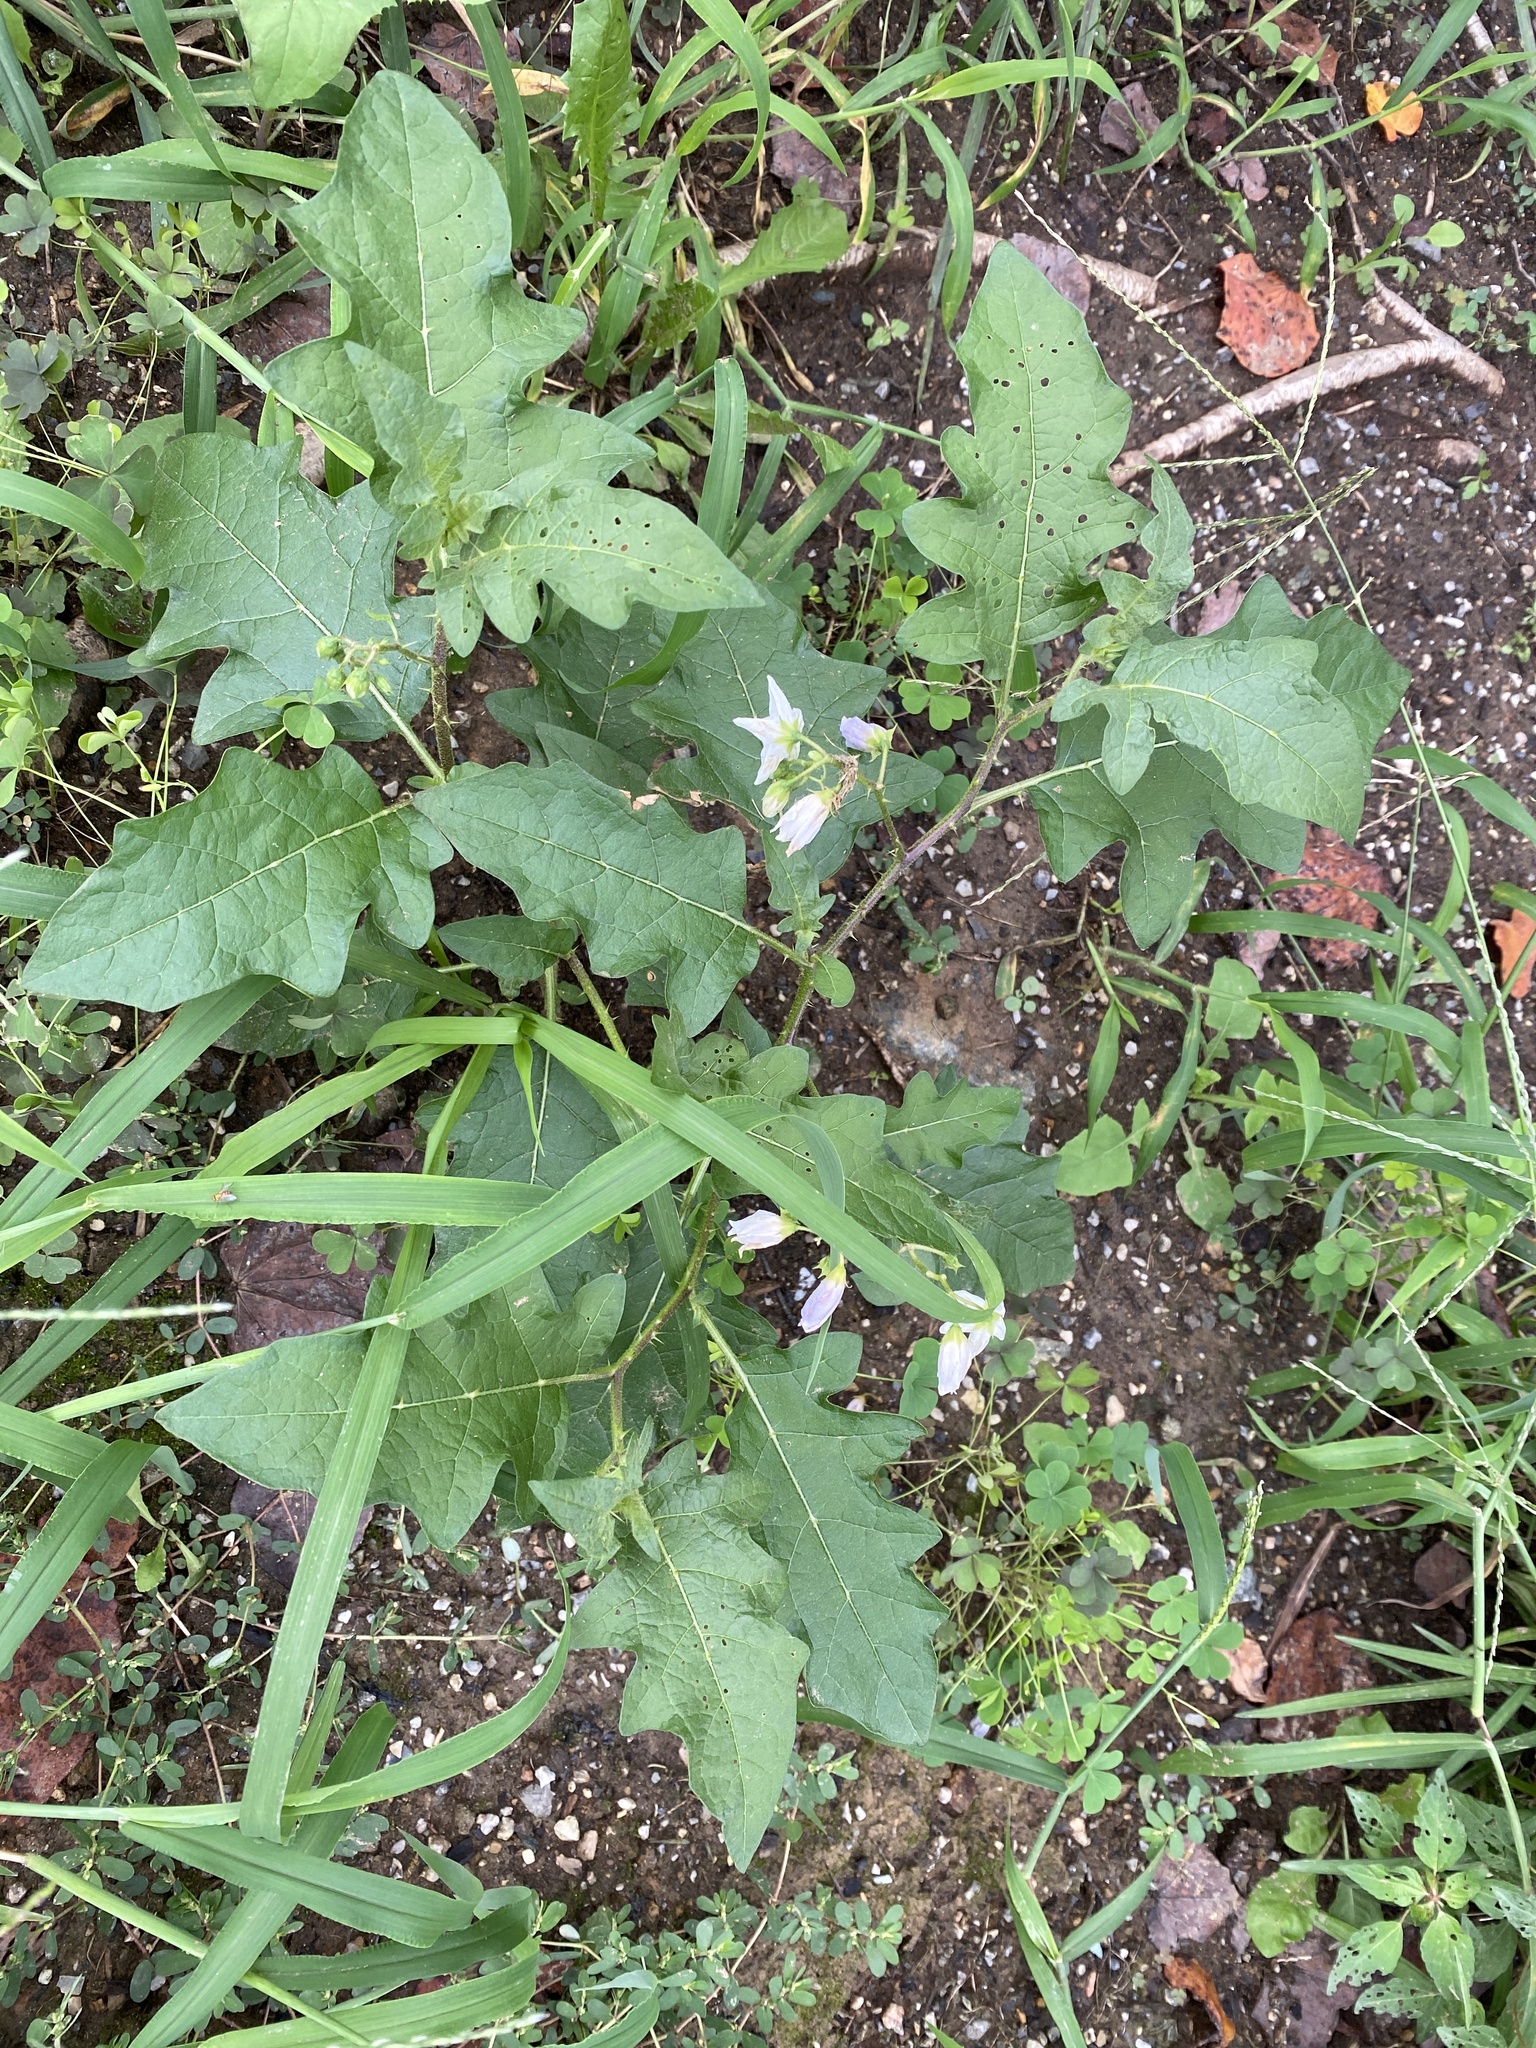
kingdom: Plantae
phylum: Tracheophyta
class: Magnoliopsida
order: Solanales
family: Solanaceae
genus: Solanum
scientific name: Solanum carolinense
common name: Horse-nettle
